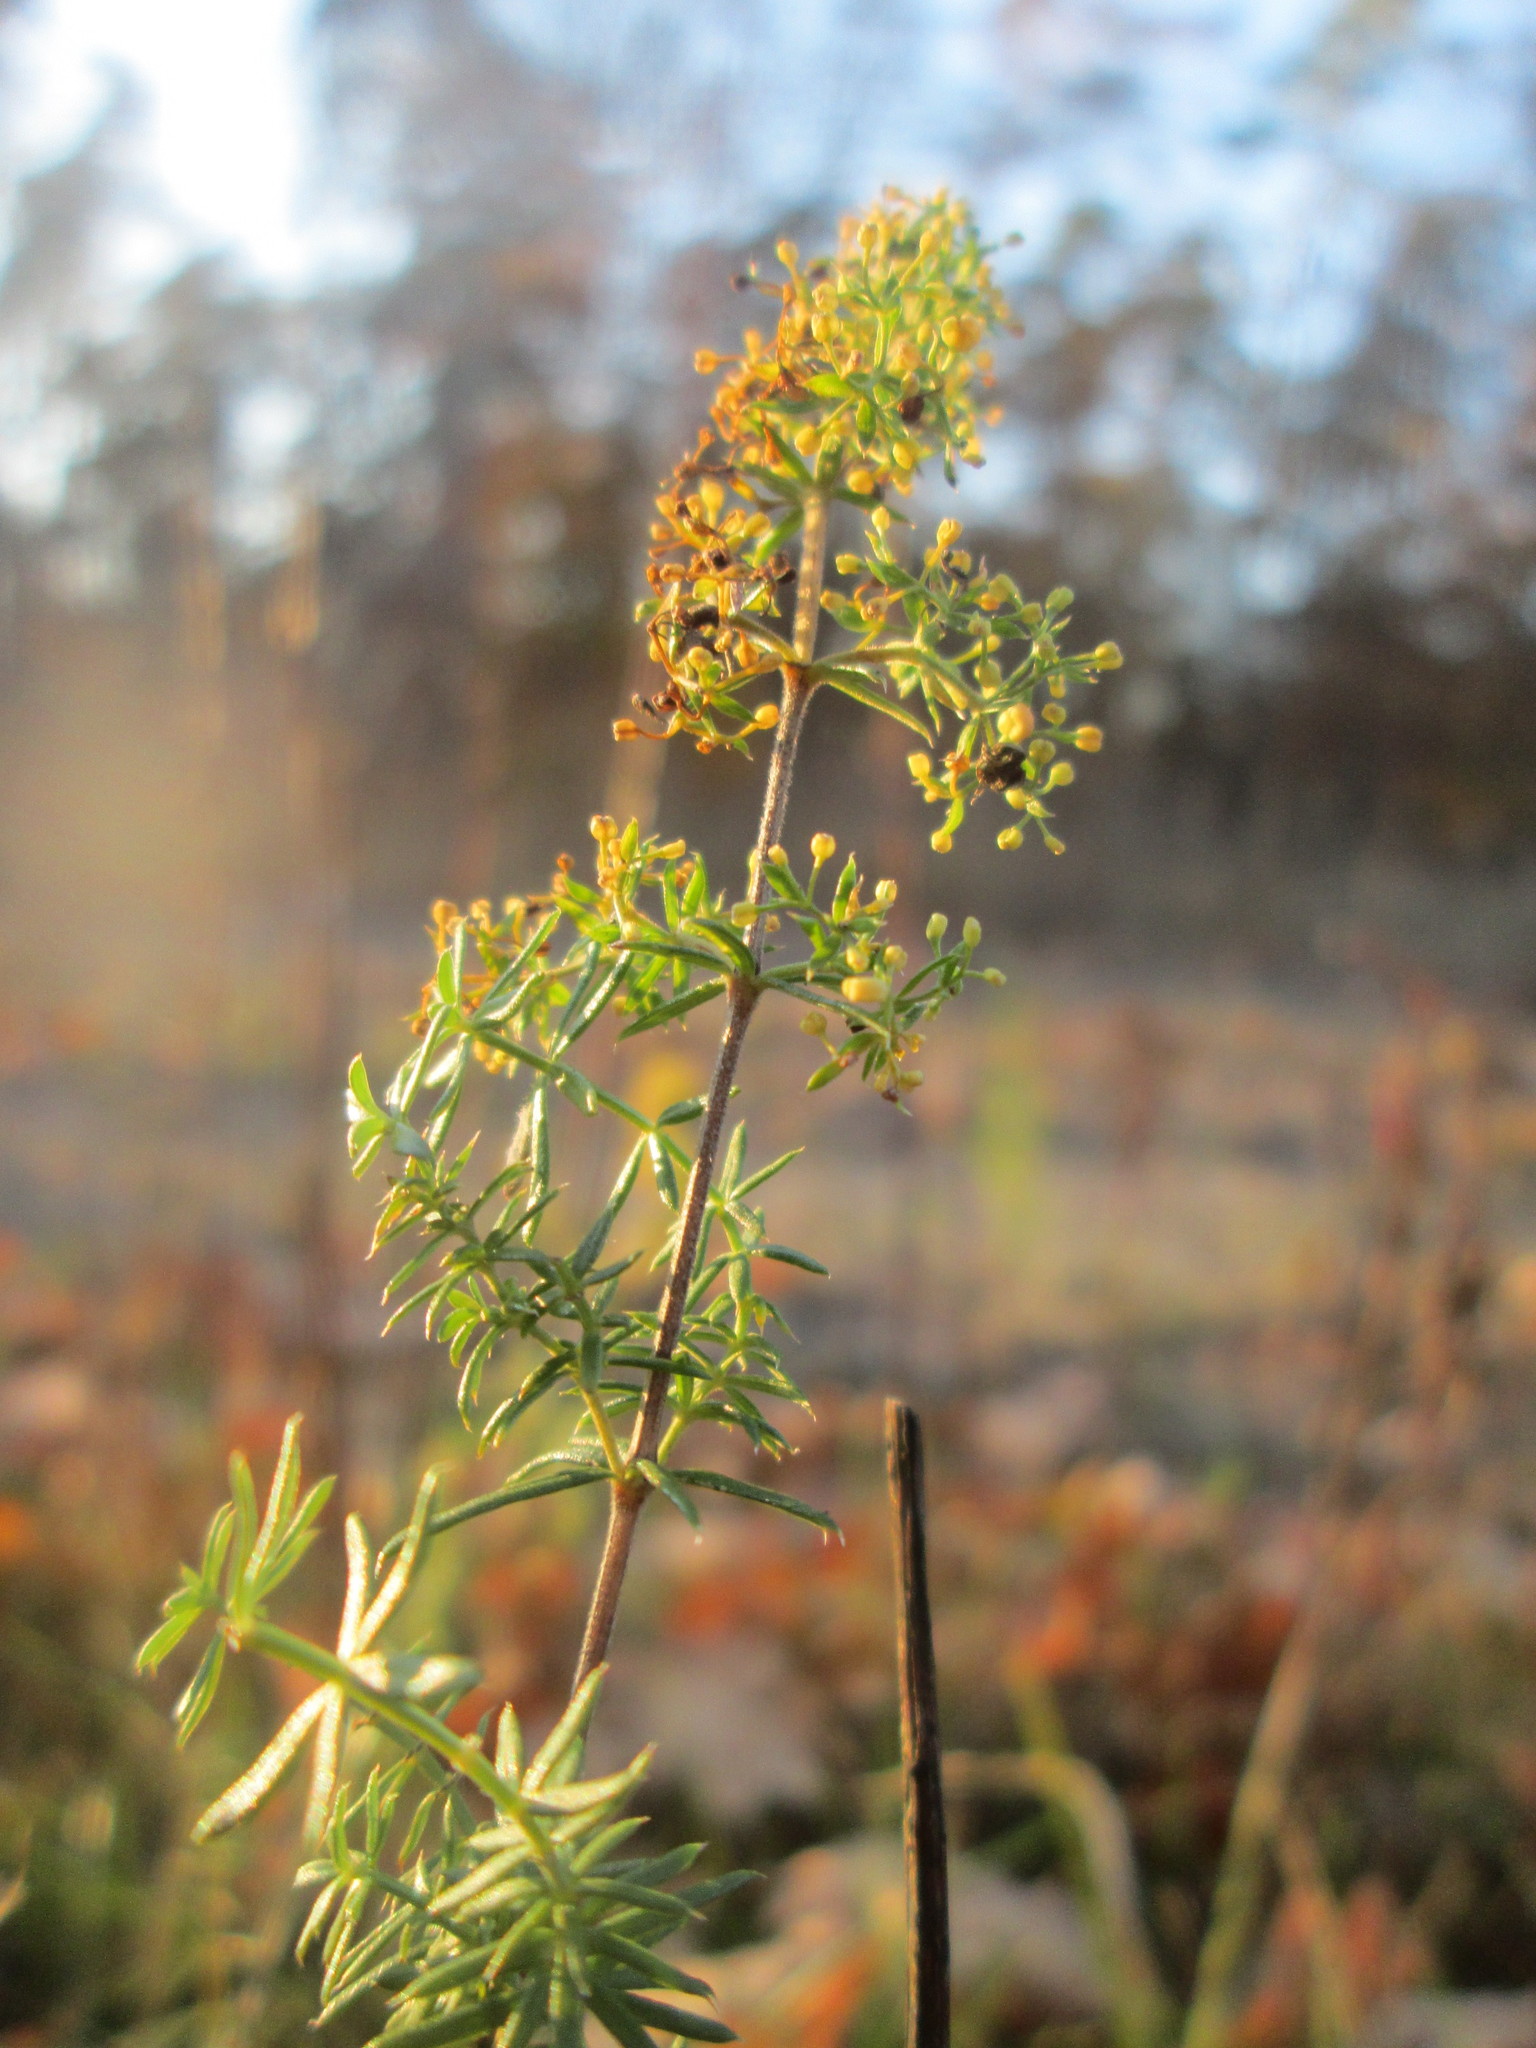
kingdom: Plantae
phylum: Tracheophyta
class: Magnoliopsida
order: Gentianales
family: Rubiaceae
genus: Galium
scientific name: Galium verum
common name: Lady's bedstraw
